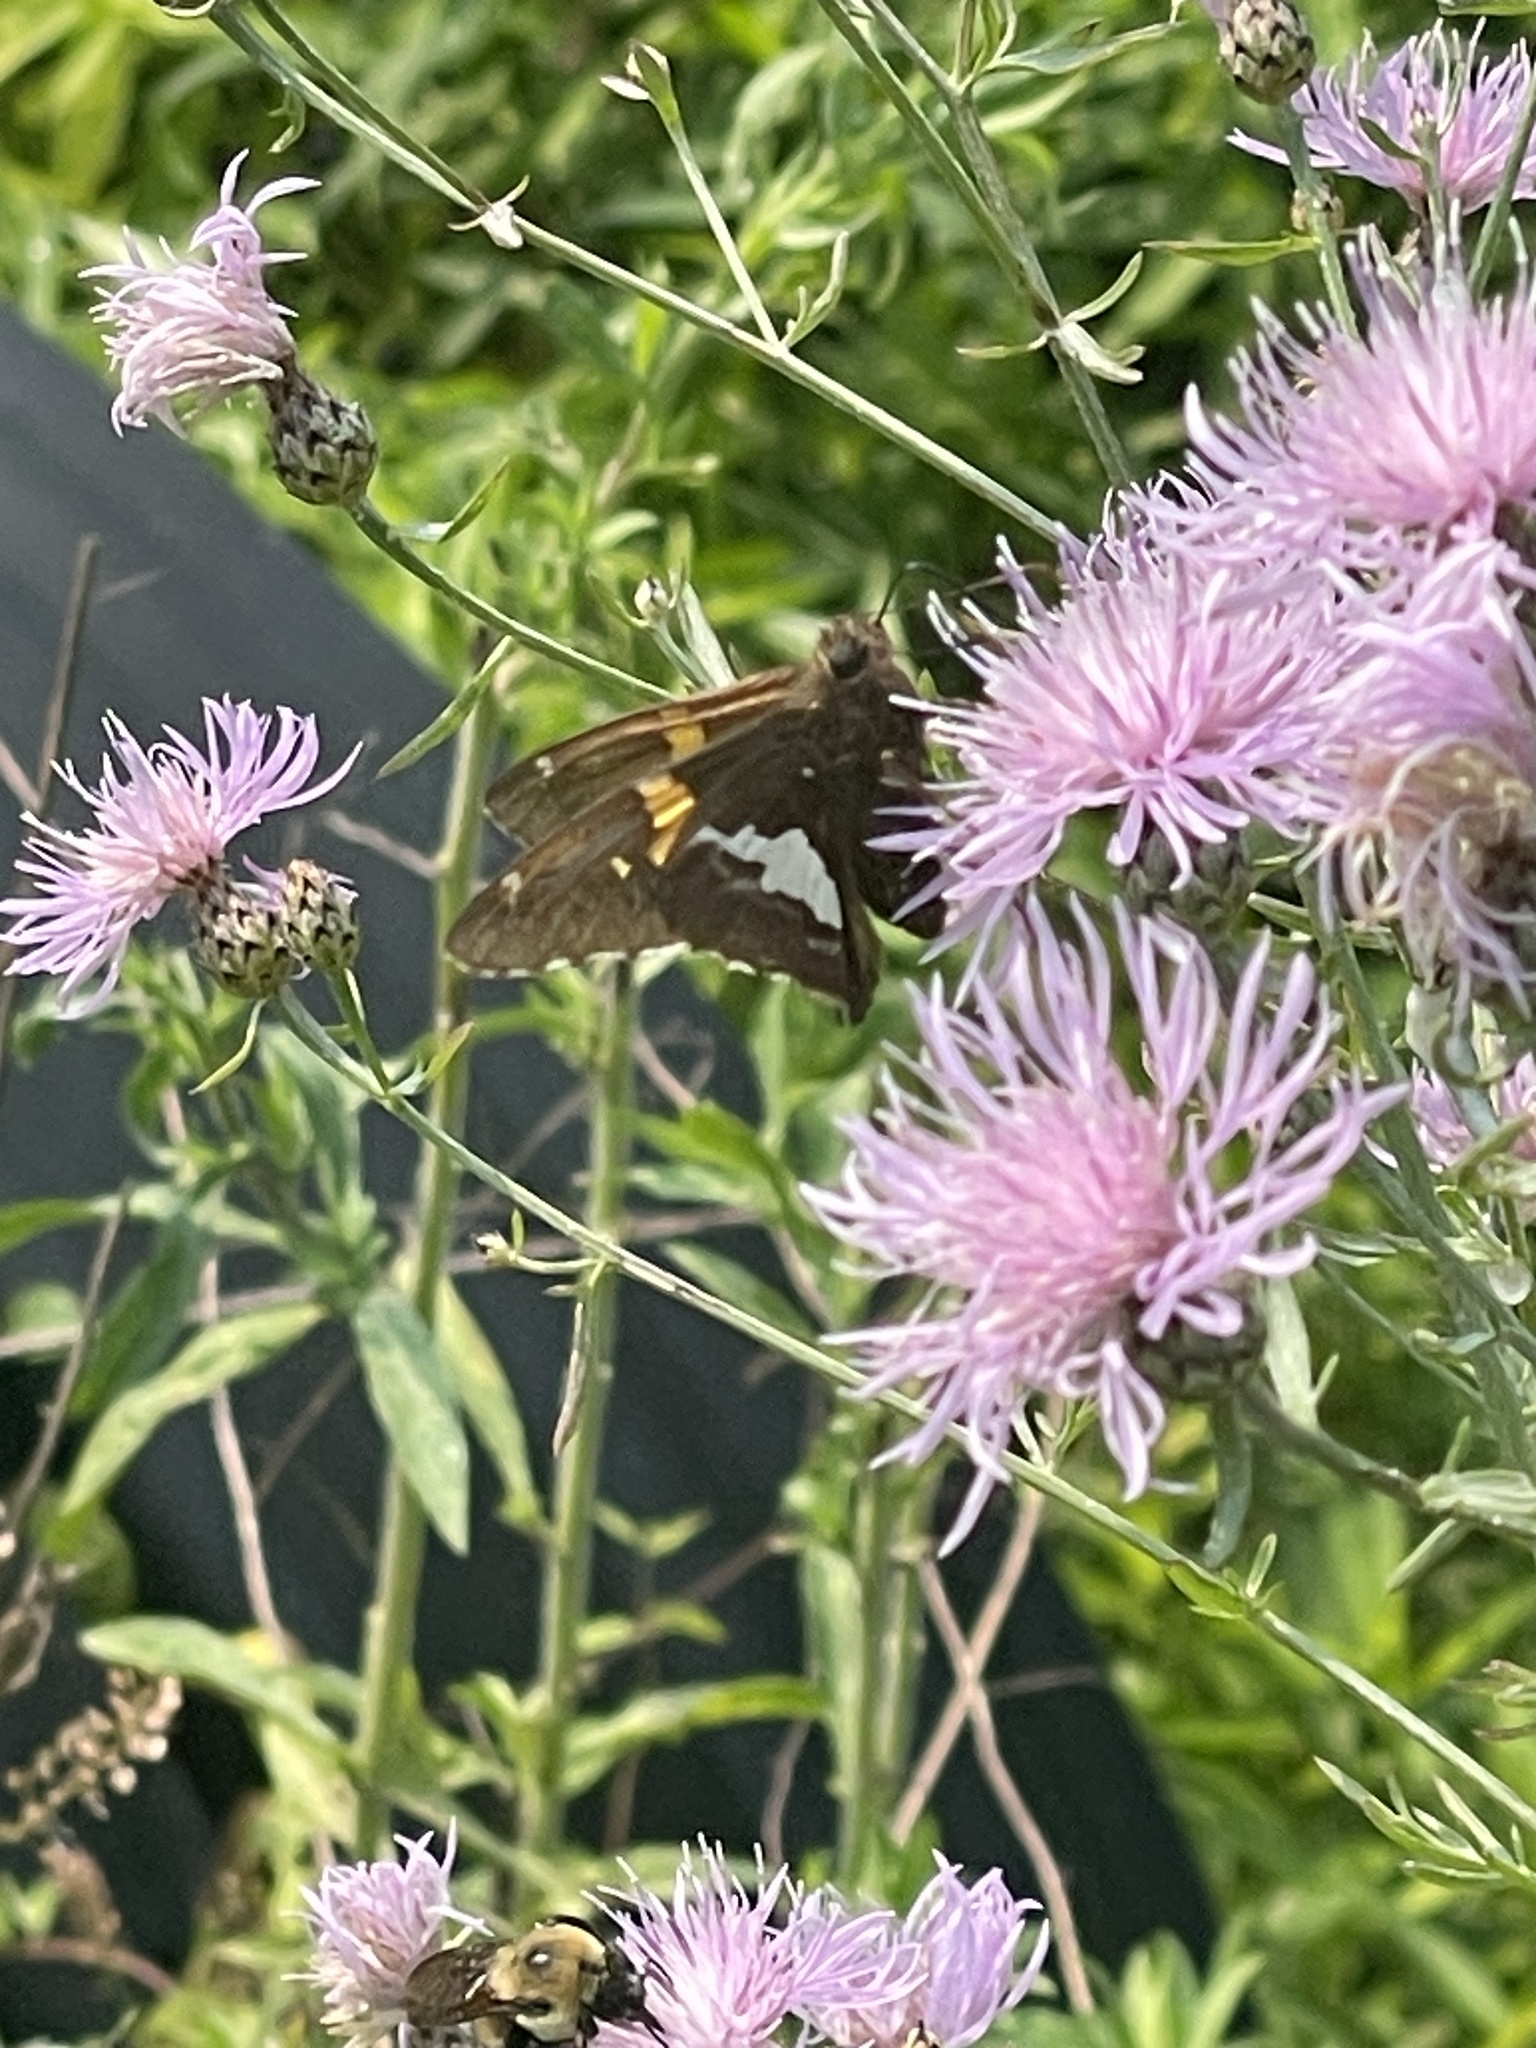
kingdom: Animalia
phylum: Arthropoda
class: Insecta
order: Lepidoptera
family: Hesperiidae
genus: Epargyreus
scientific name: Epargyreus clarus
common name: Silver-spotted skipper
